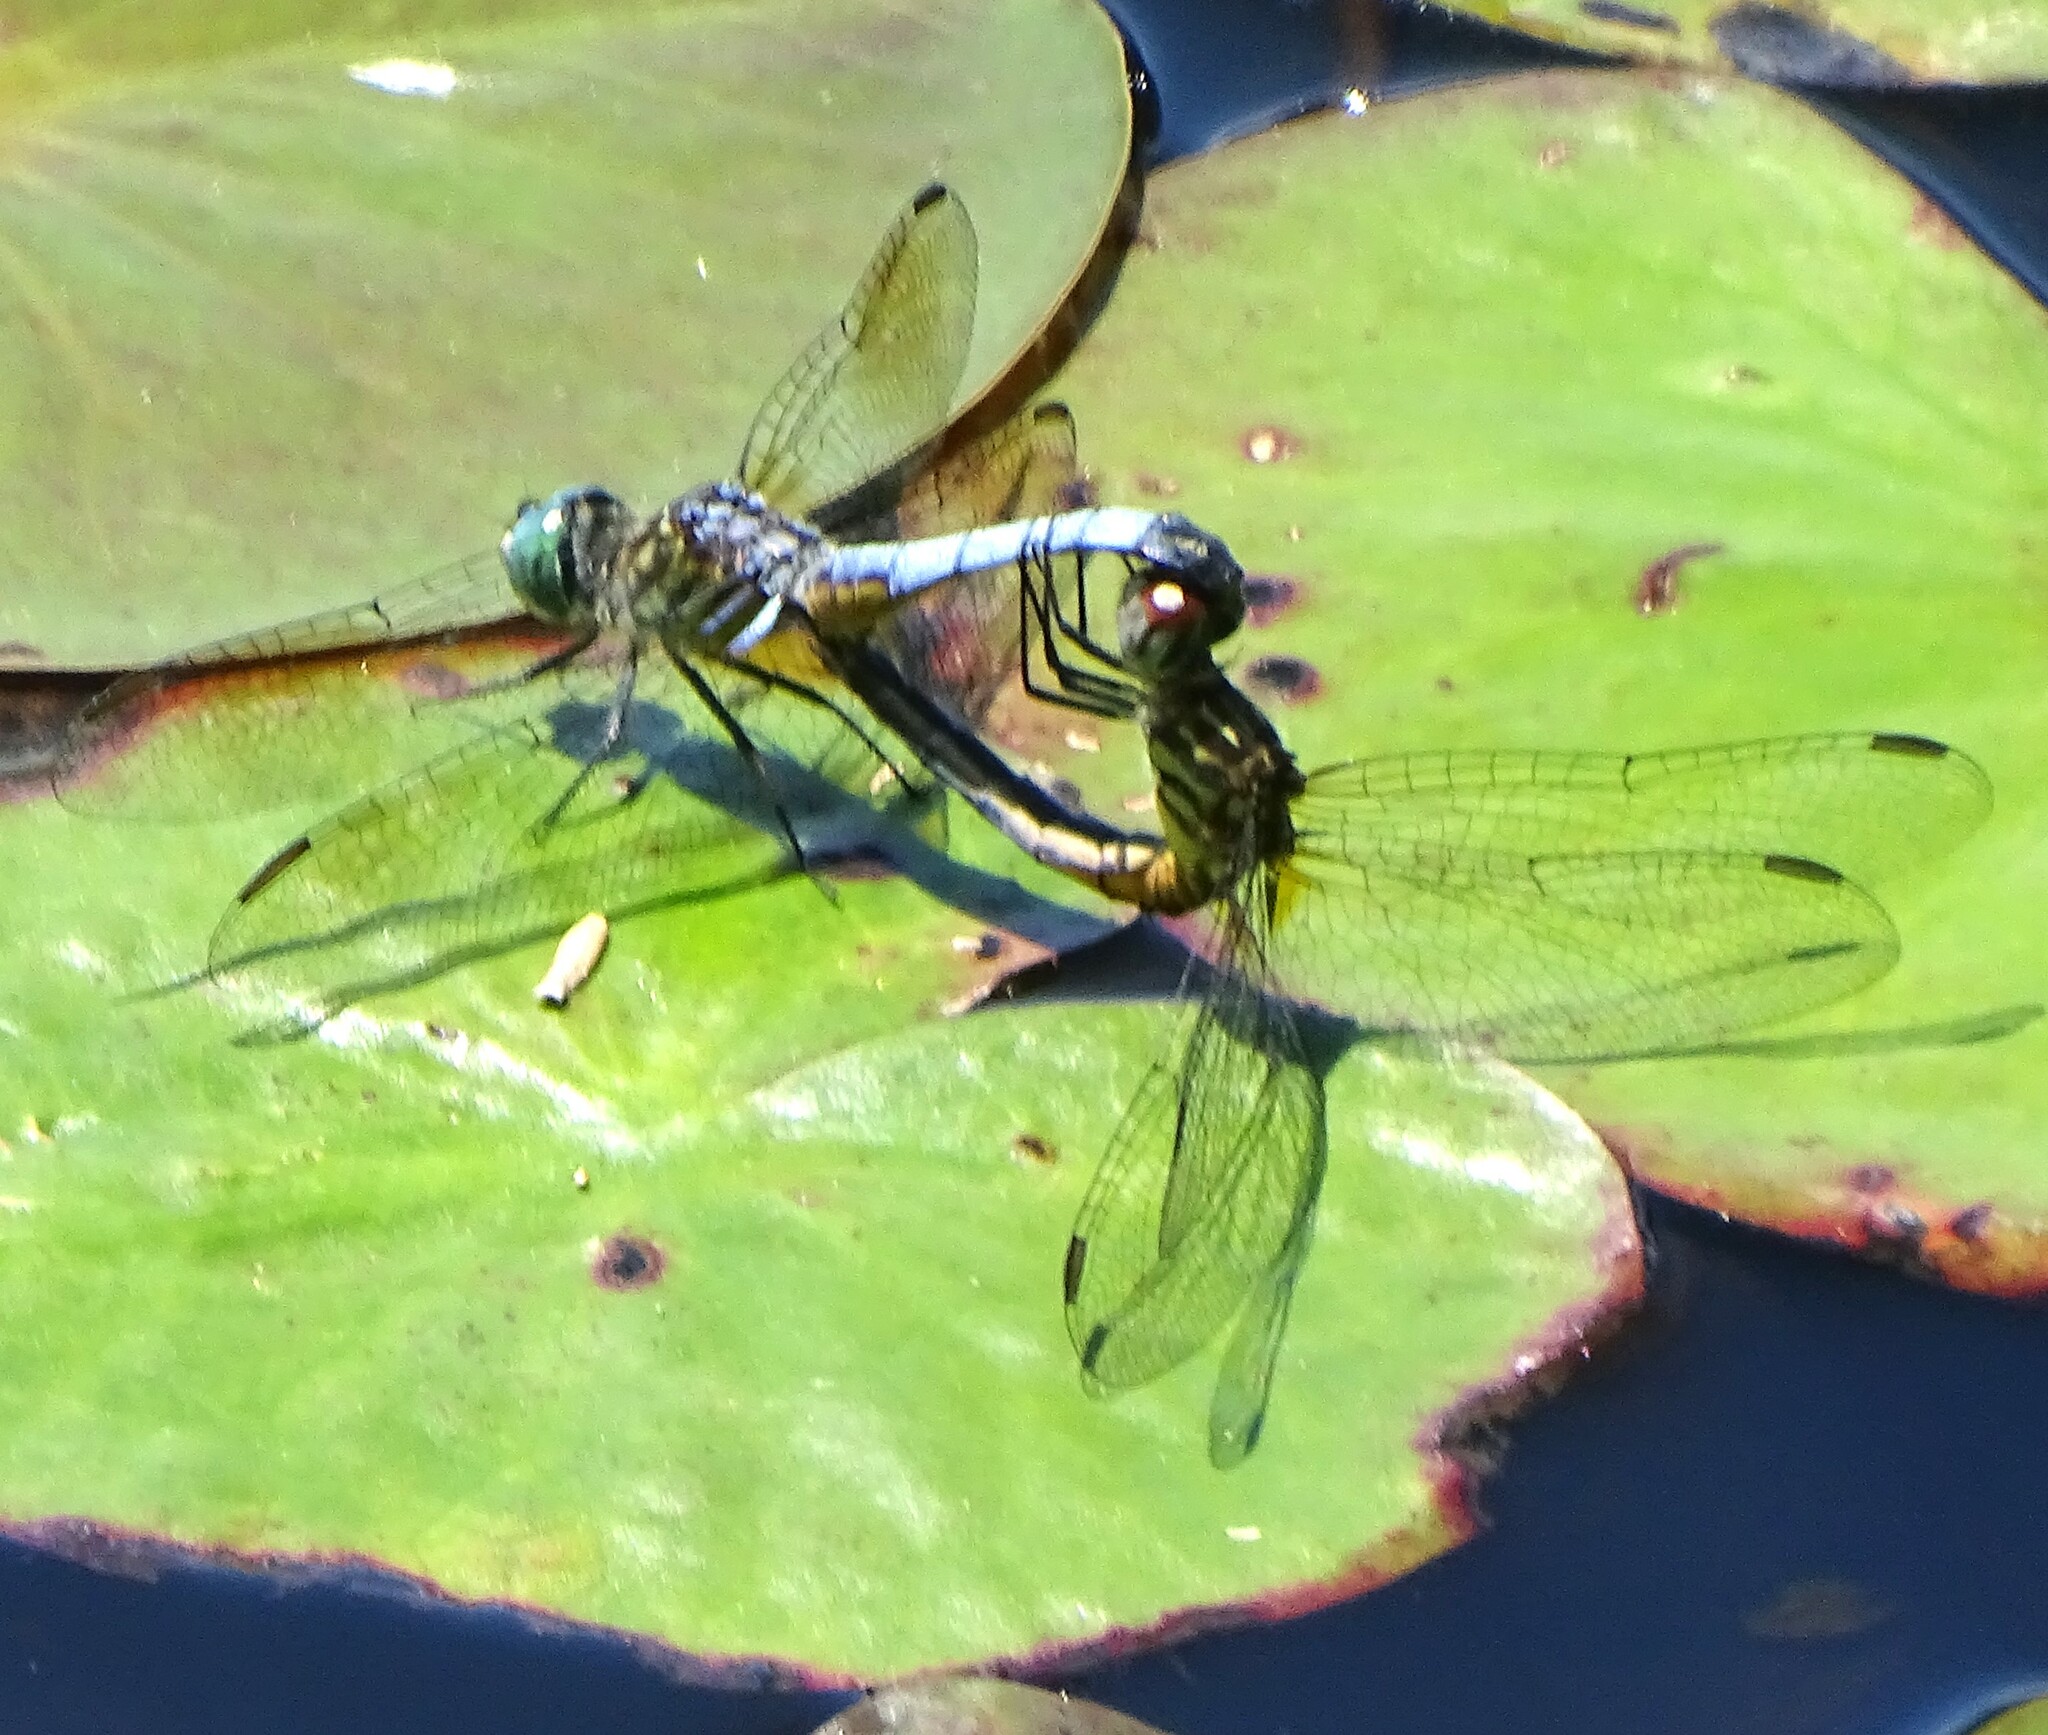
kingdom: Animalia
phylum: Arthropoda
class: Insecta
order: Odonata
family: Libellulidae
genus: Pachydiplax
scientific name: Pachydiplax longipennis
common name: Blue dasher
